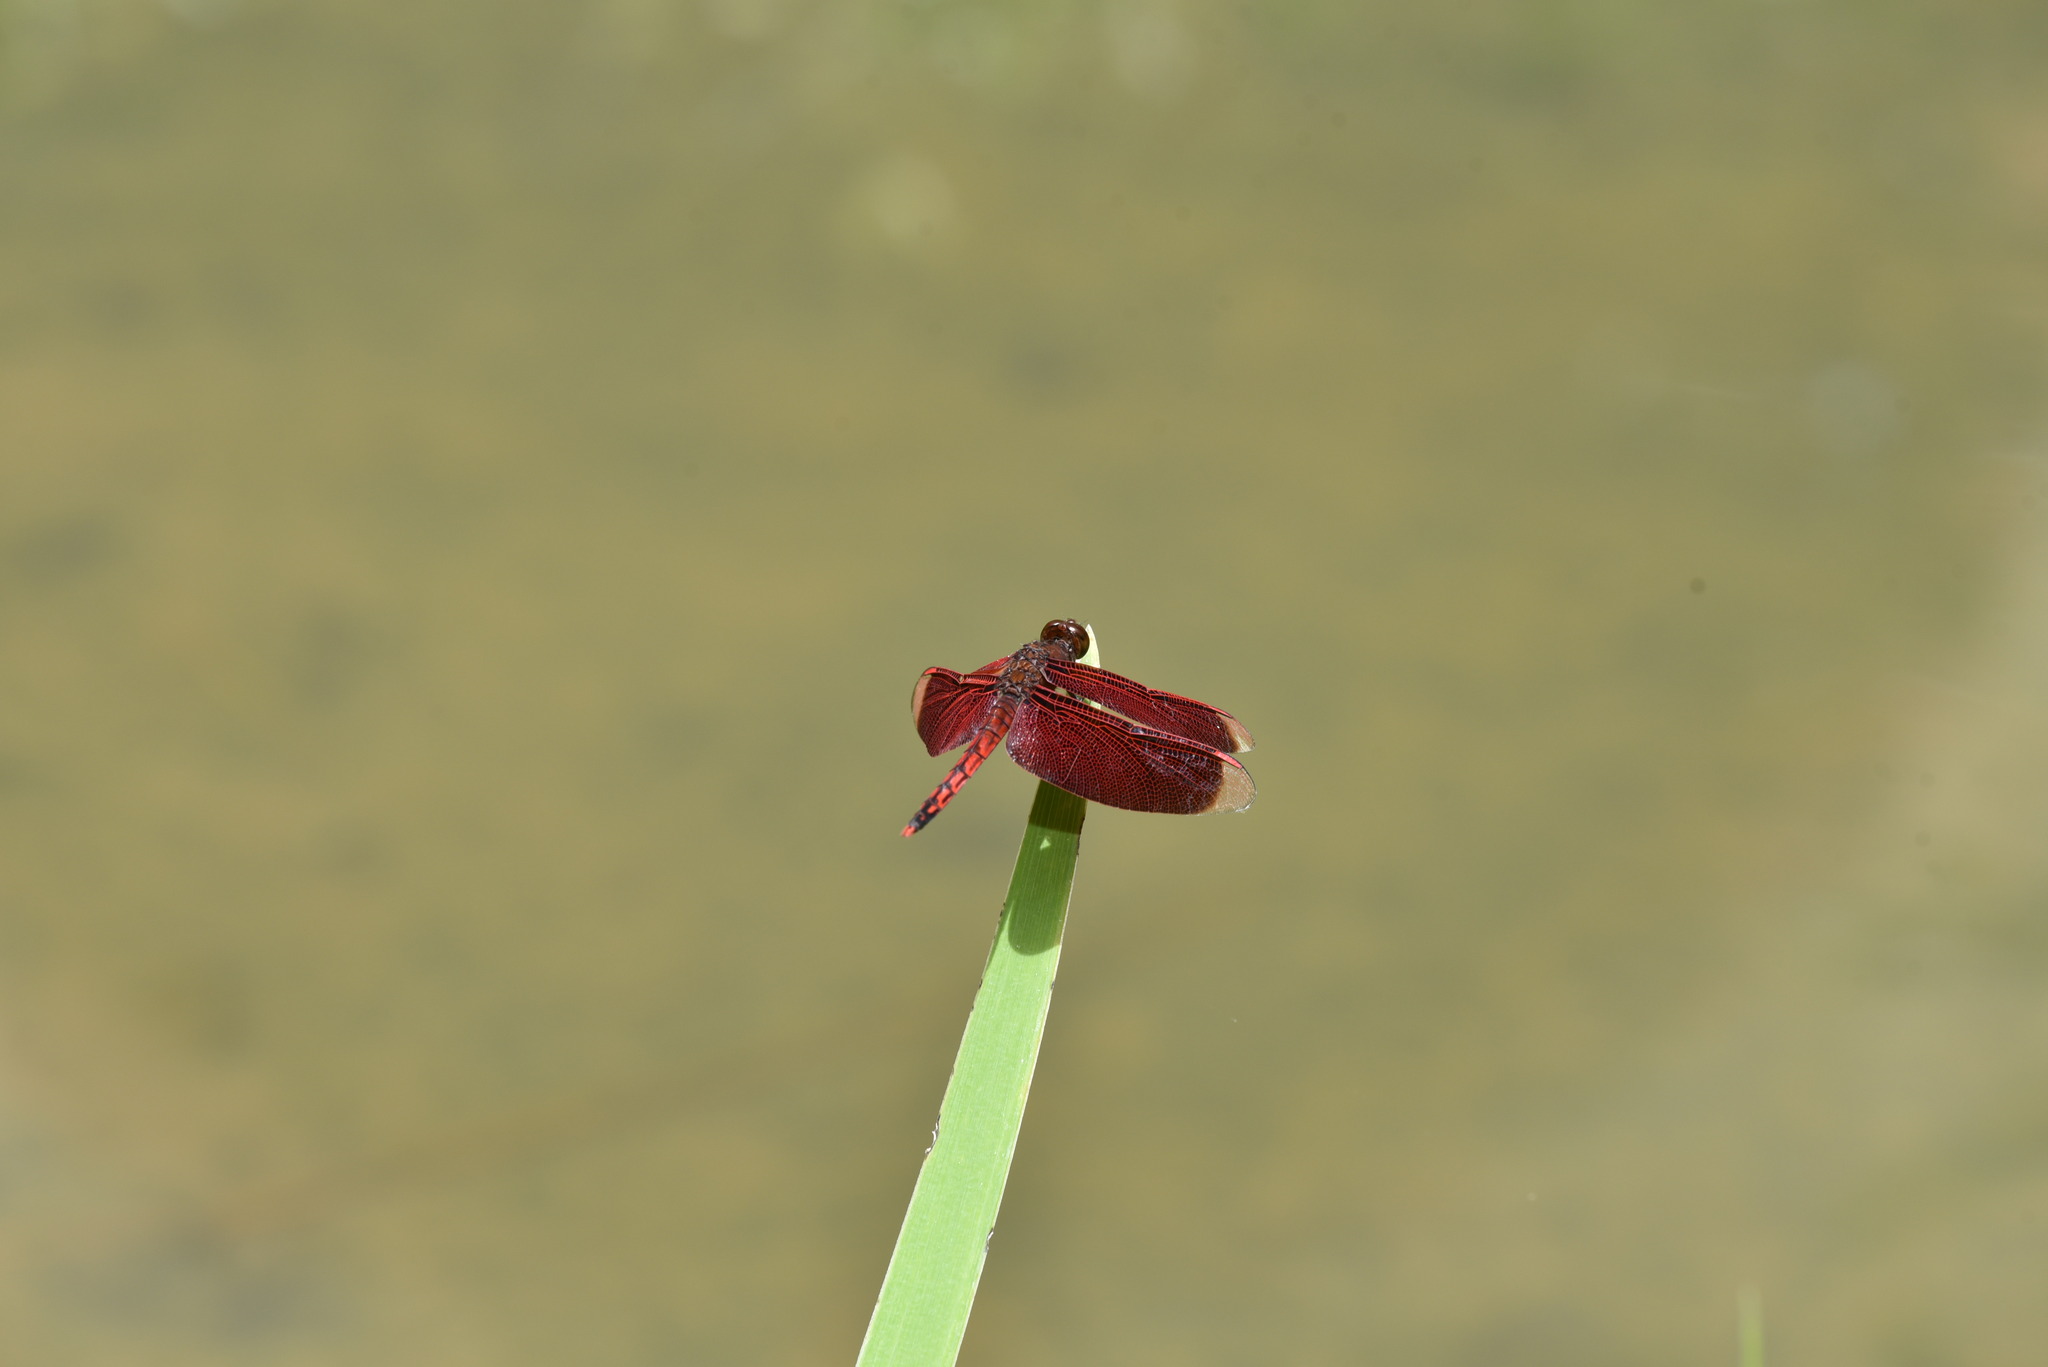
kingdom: Animalia
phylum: Arthropoda
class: Insecta
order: Odonata
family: Libellulidae
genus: Neurothemis
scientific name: Neurothemis taiwanensis
